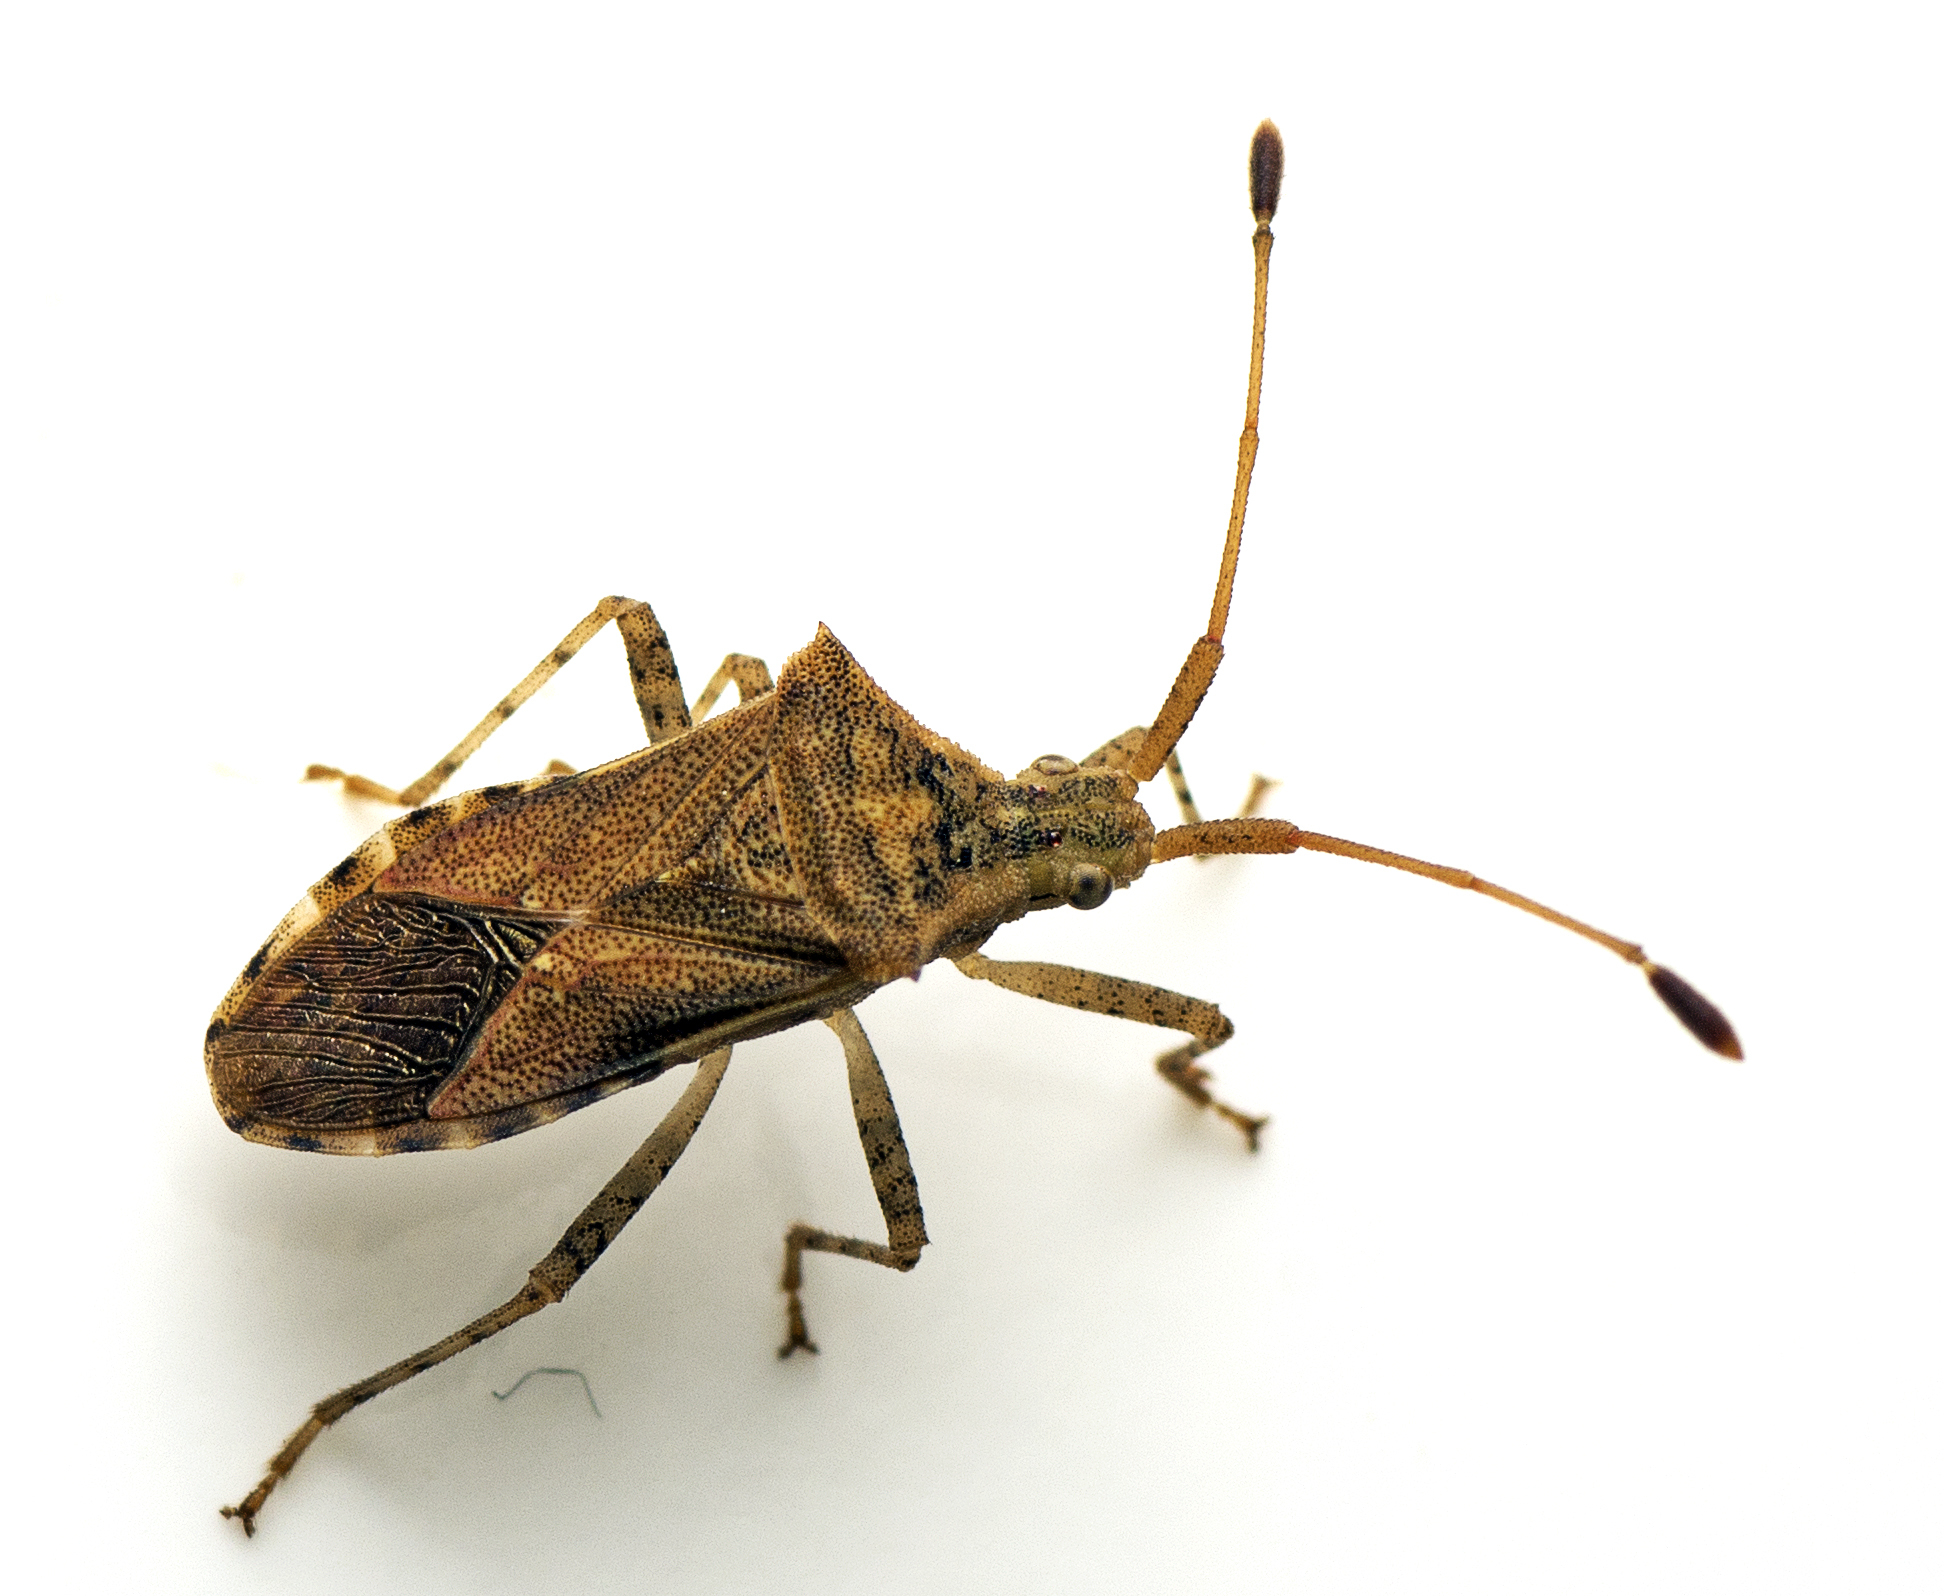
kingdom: Animalia
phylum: Arthropoda
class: Insecta
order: Hemiptera
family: Coreidae
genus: Cletus
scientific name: Cletus similis
